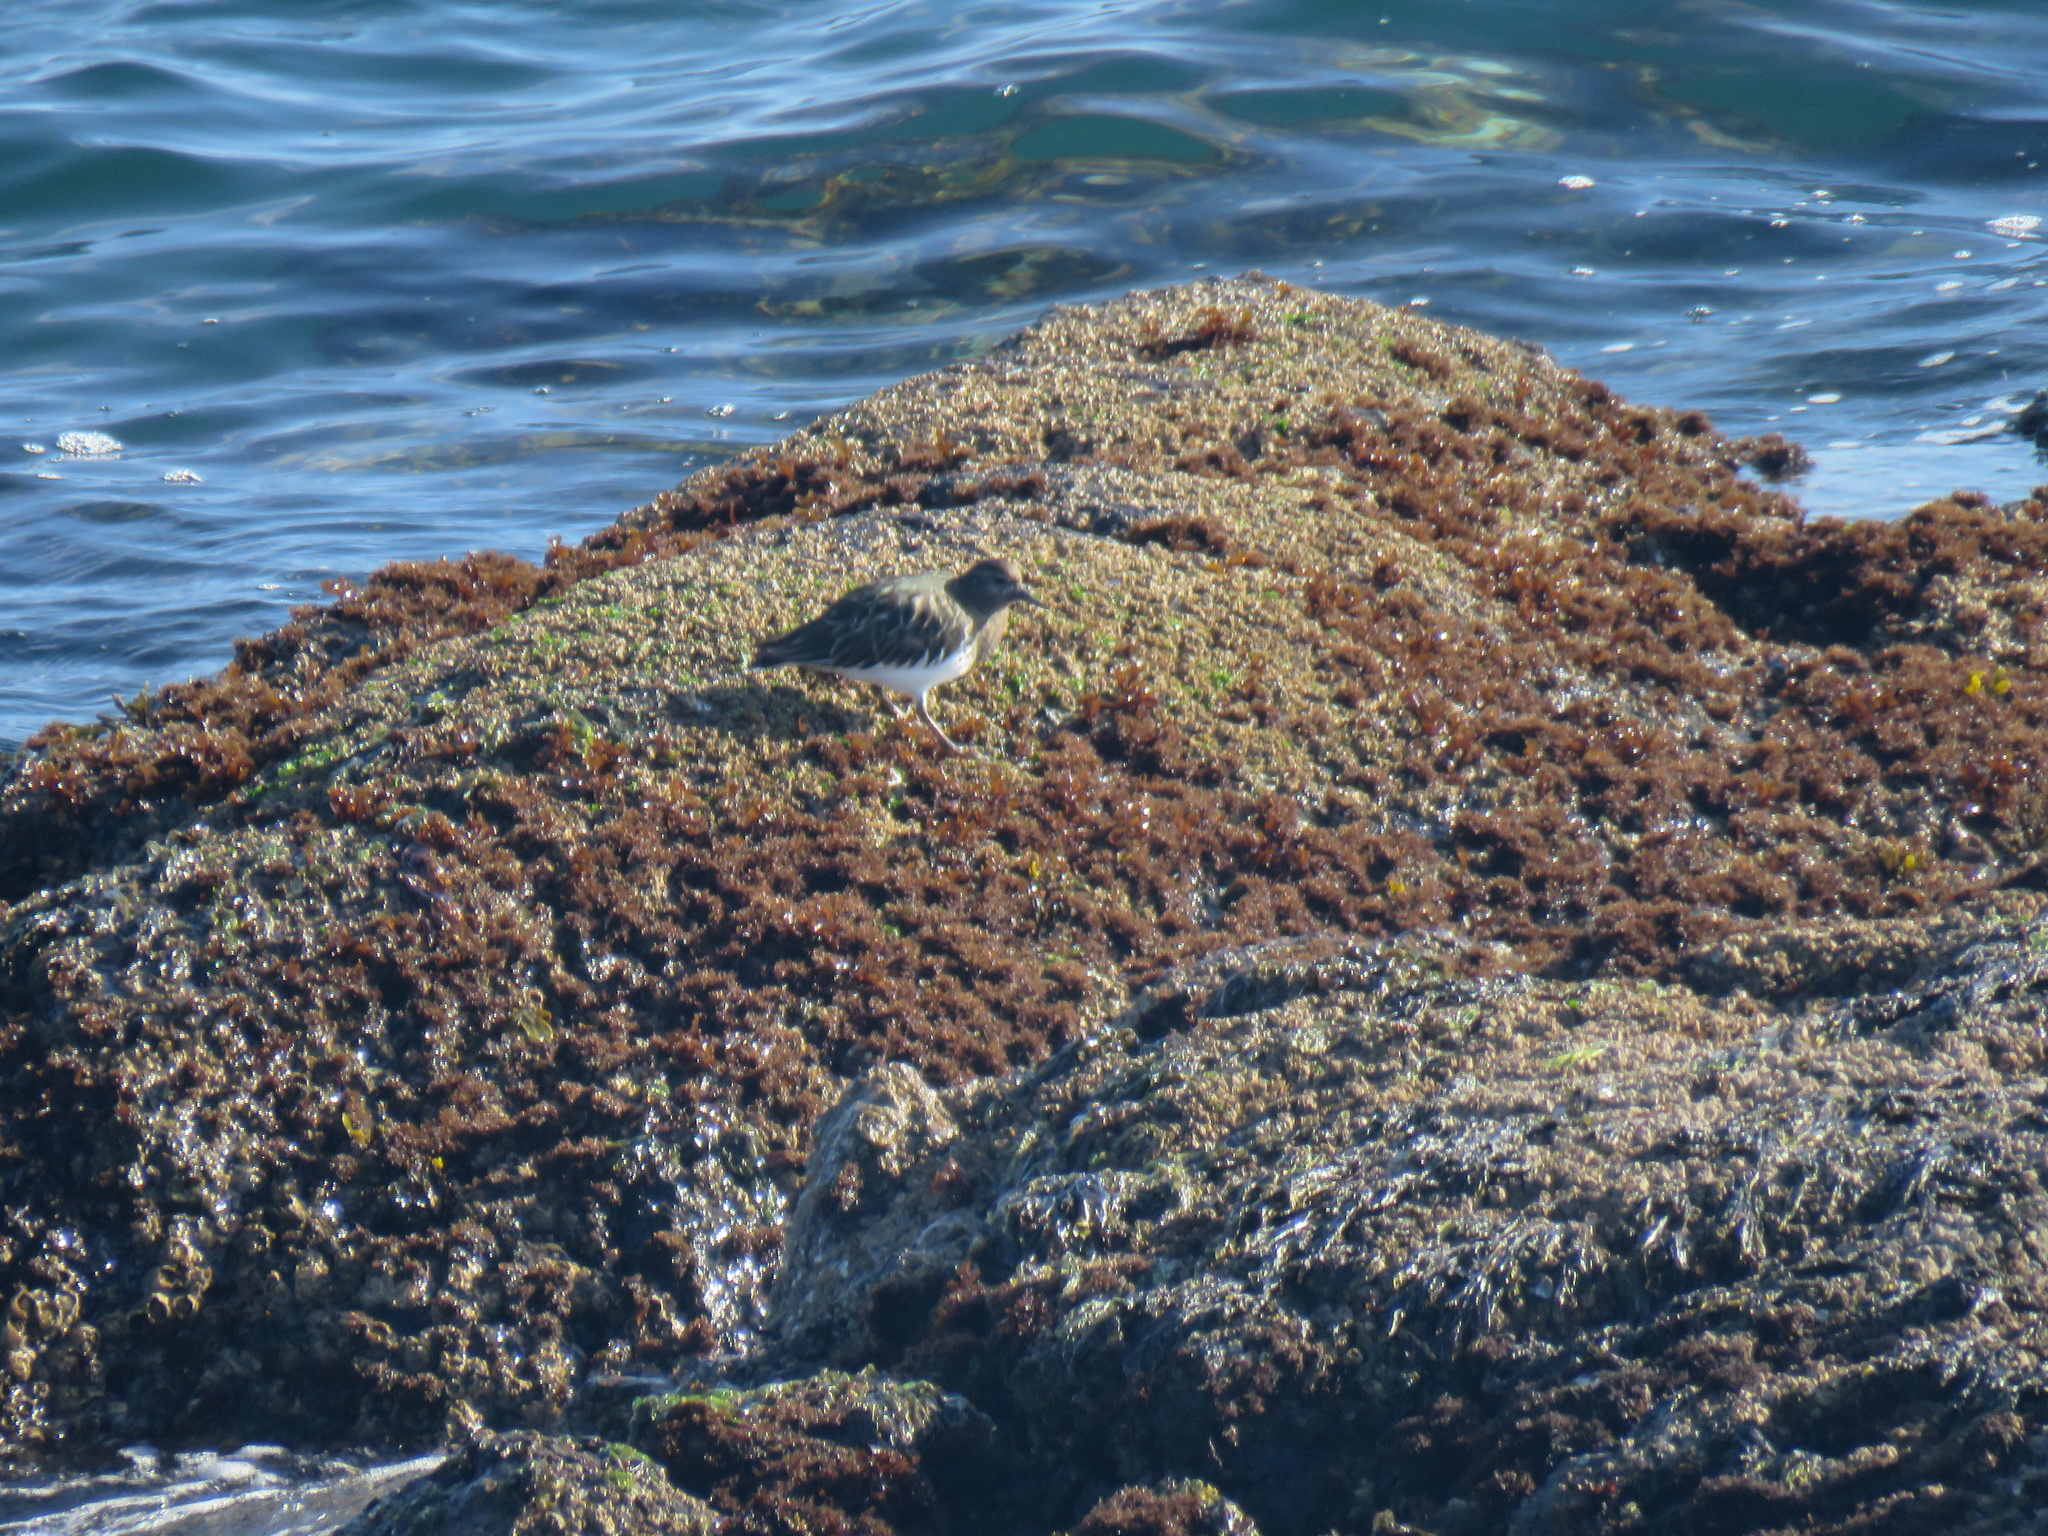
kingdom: Animalia
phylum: Chordata
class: Aves
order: Charadriiformes
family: Scolopacidae
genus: Arenaria
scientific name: Arenaria melanocephala
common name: Black turnstone
